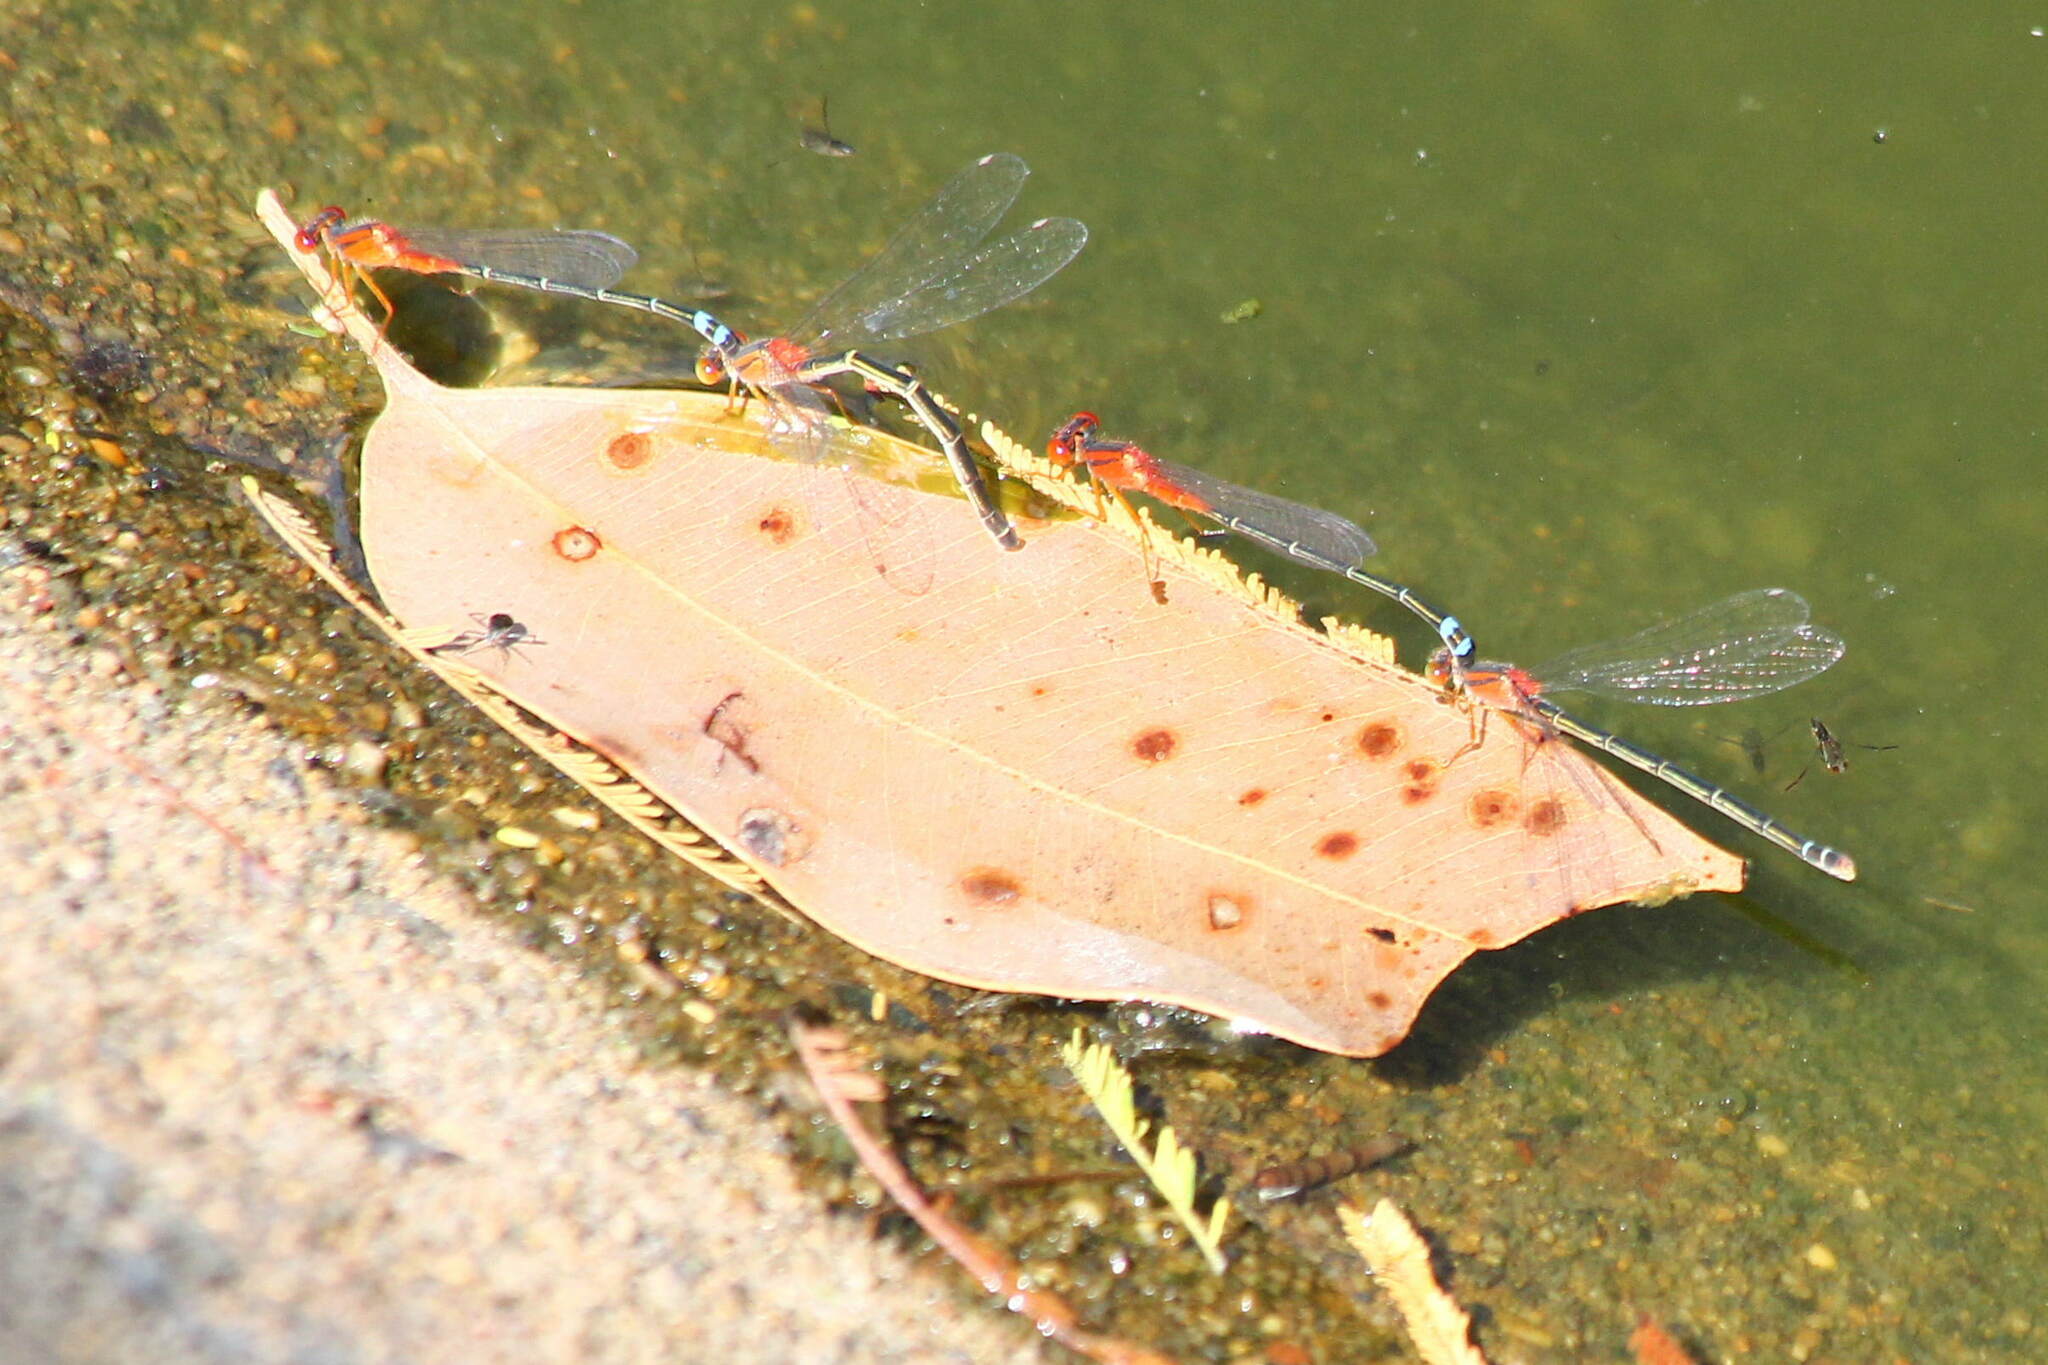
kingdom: Animalia
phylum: Arthropoda
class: Insecta
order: Odonata
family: Coenagrionidae
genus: Xanthagrion
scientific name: Xanthagrion erythroneurum
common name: Red and blue damsel
